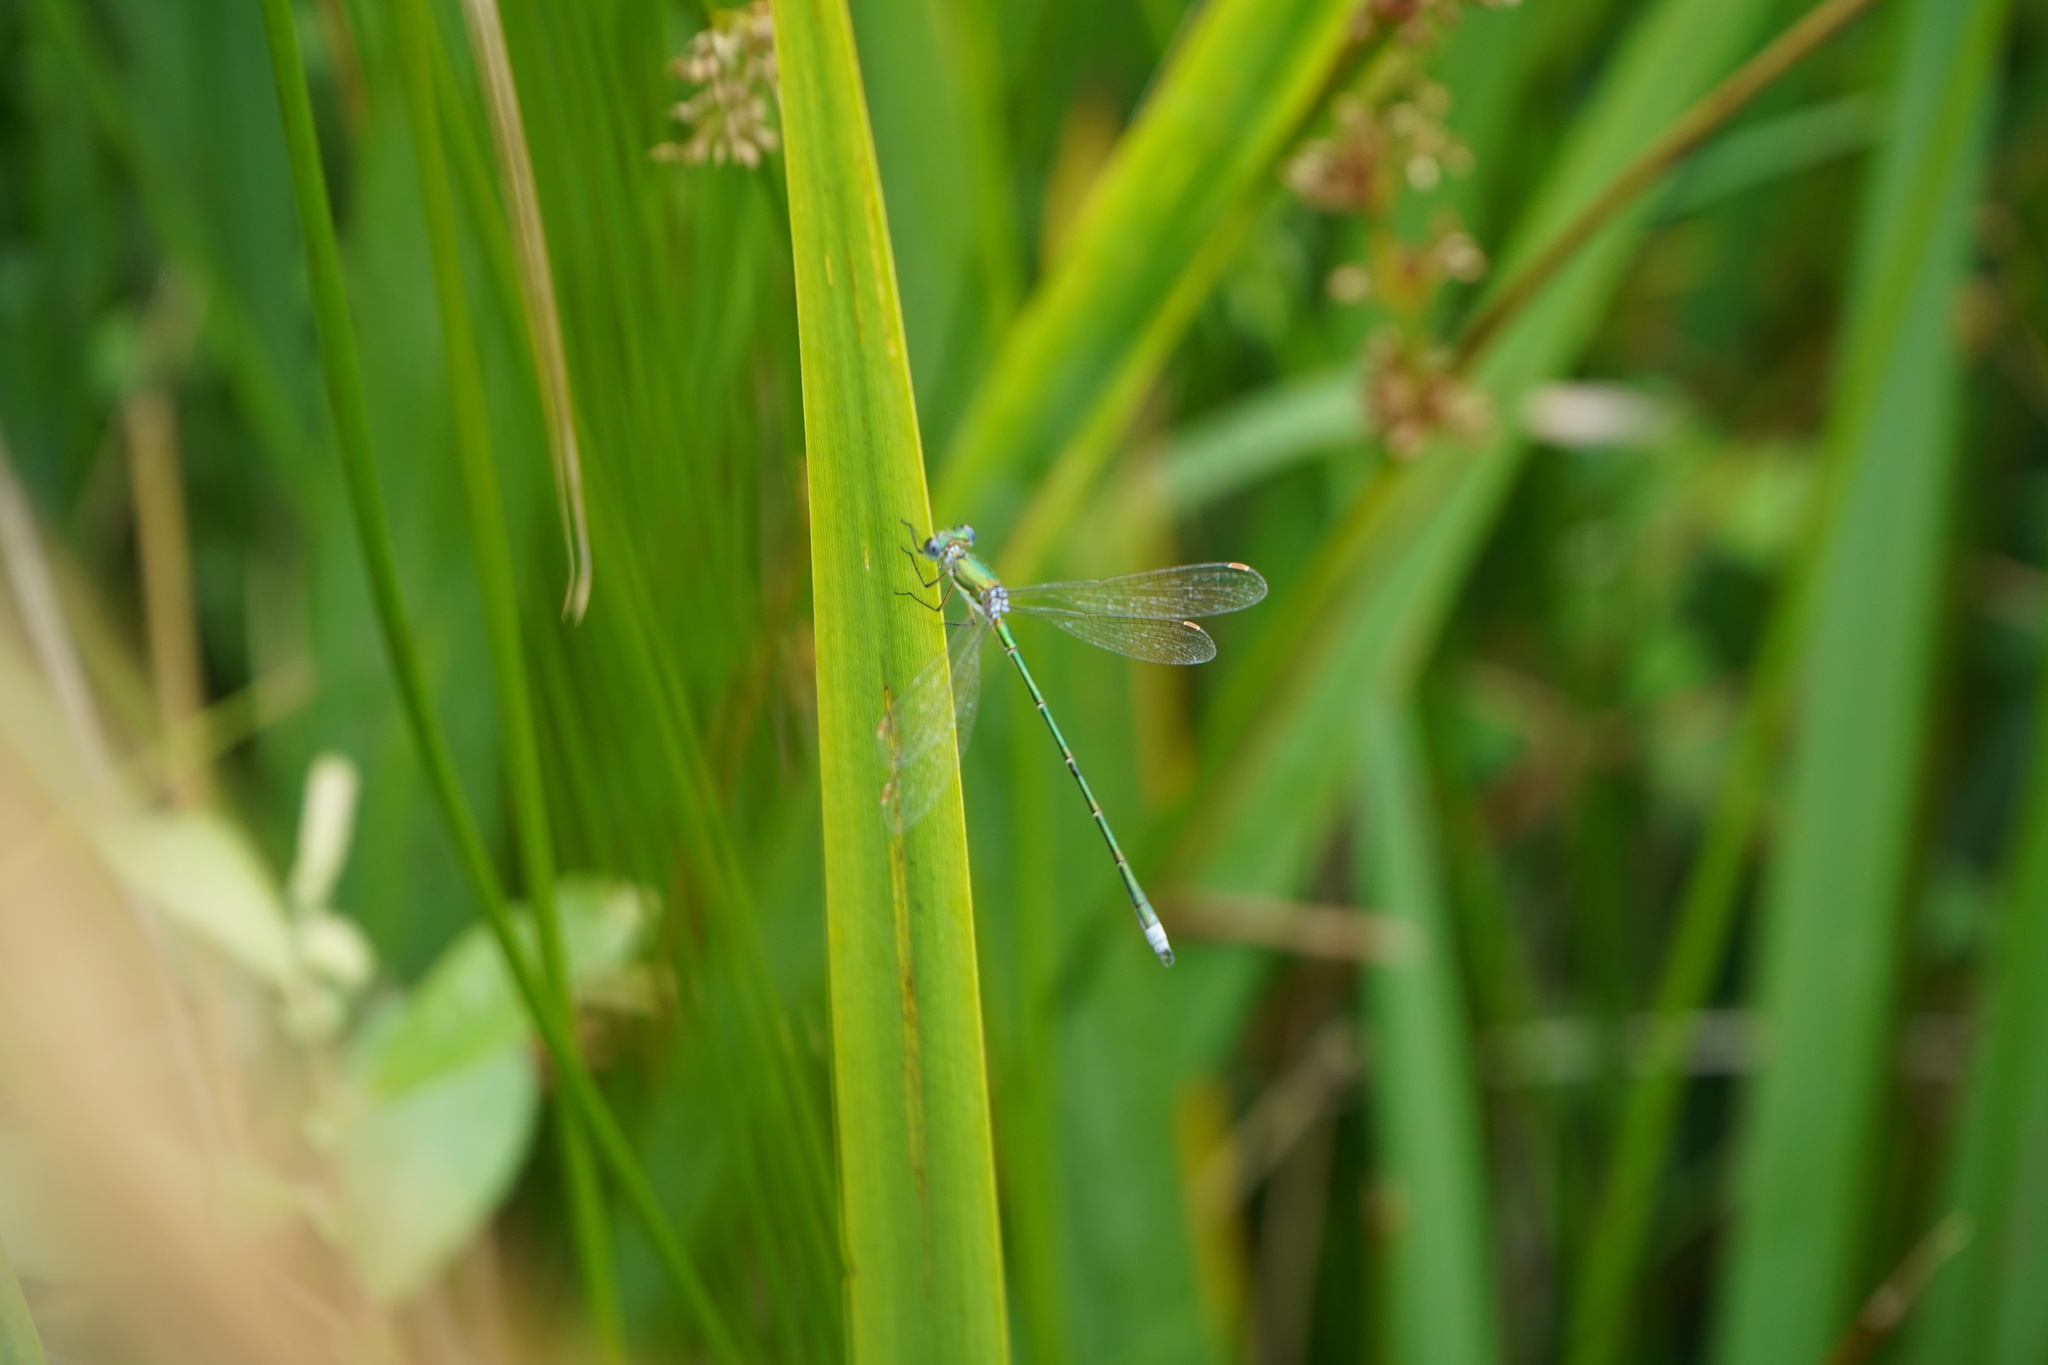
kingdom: Animalia
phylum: Arthropoda
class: Insecta
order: Odonata
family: Lestidae
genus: Lestes
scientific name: Lestes virens
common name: Small emerald spreadwing
